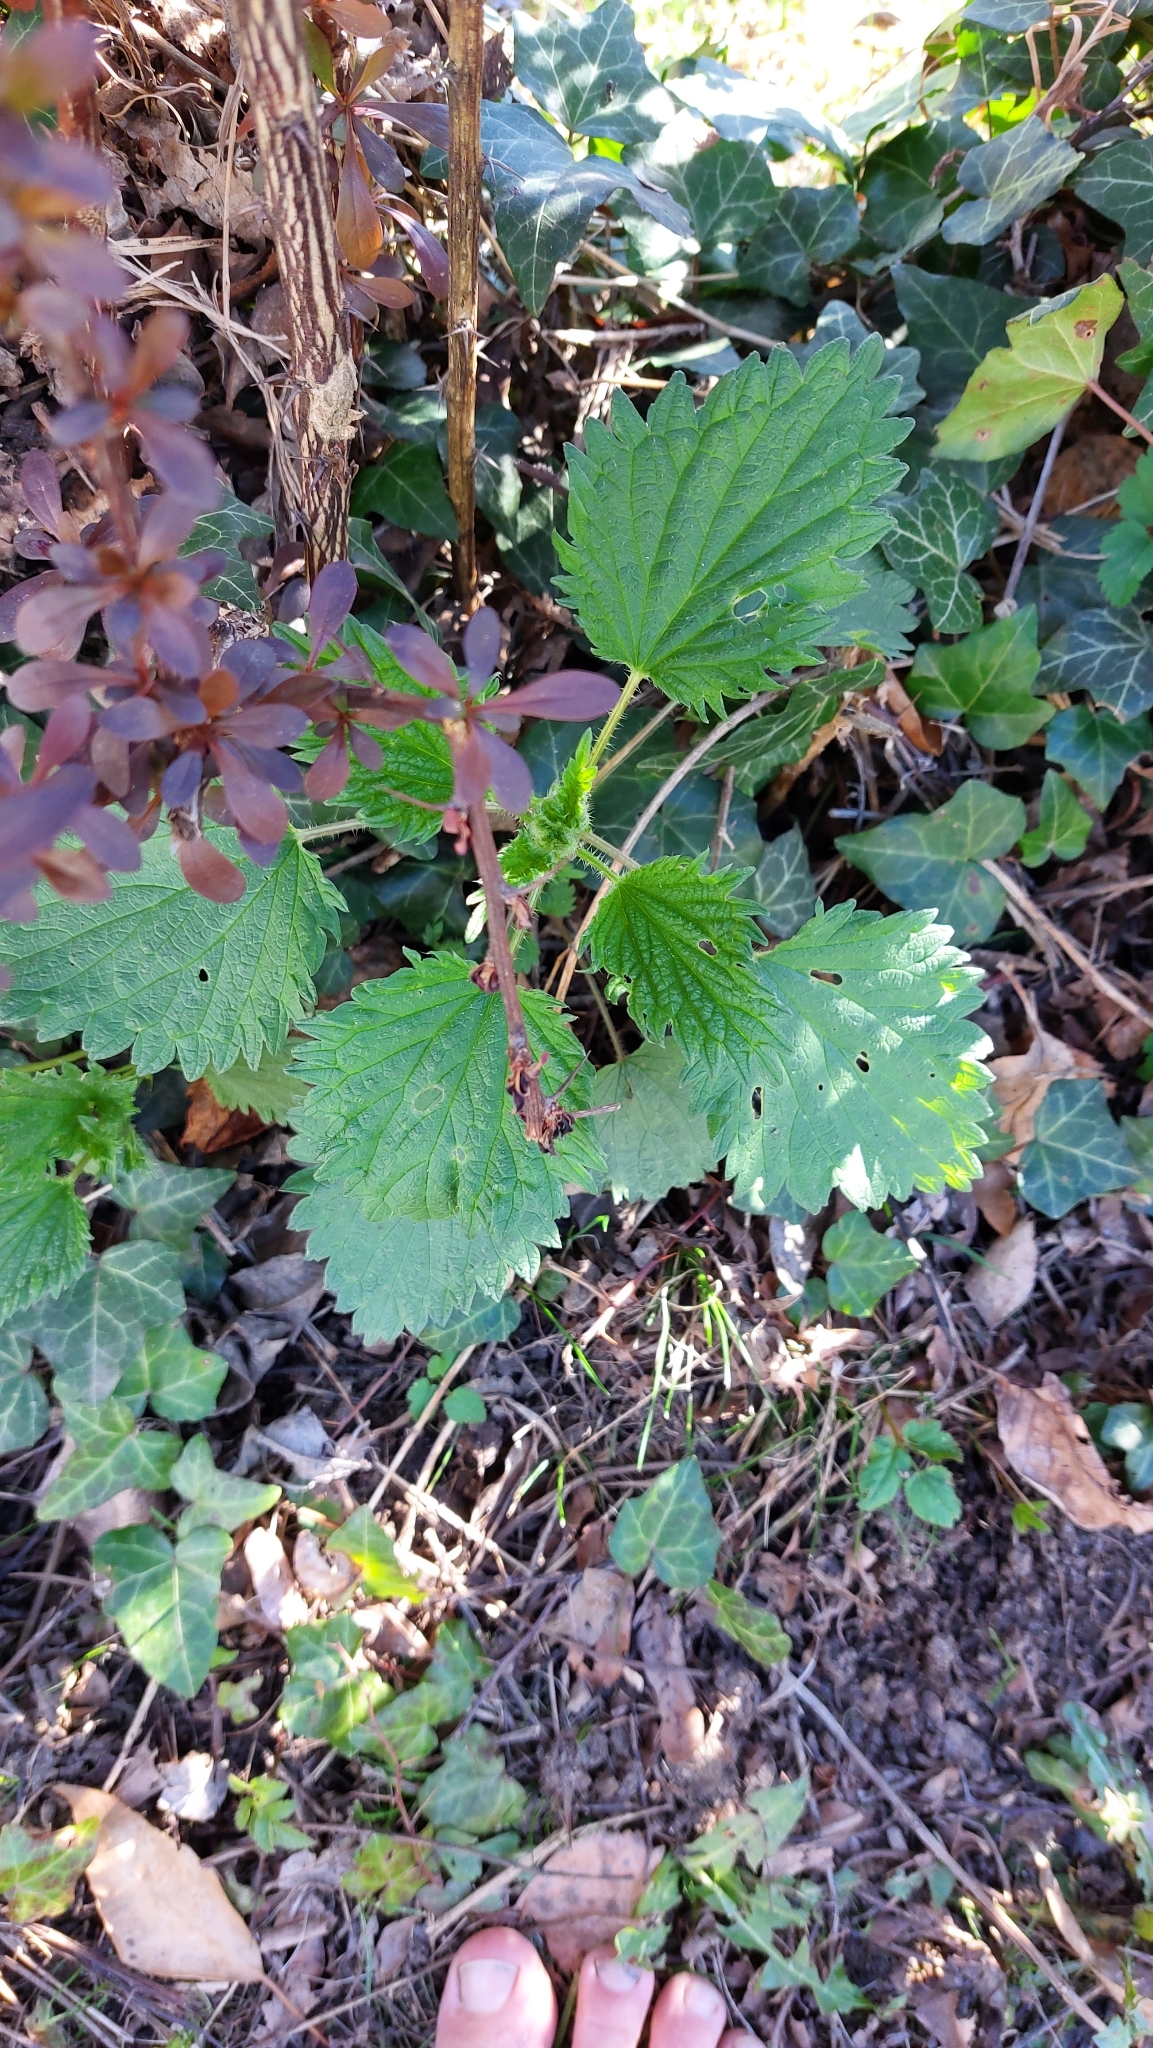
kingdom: Plantae
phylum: Tracheophyta
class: Magnoliopsida
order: Rosales
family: Urticaceae
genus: Urtica
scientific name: Urtica dioica
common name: Common nettle
